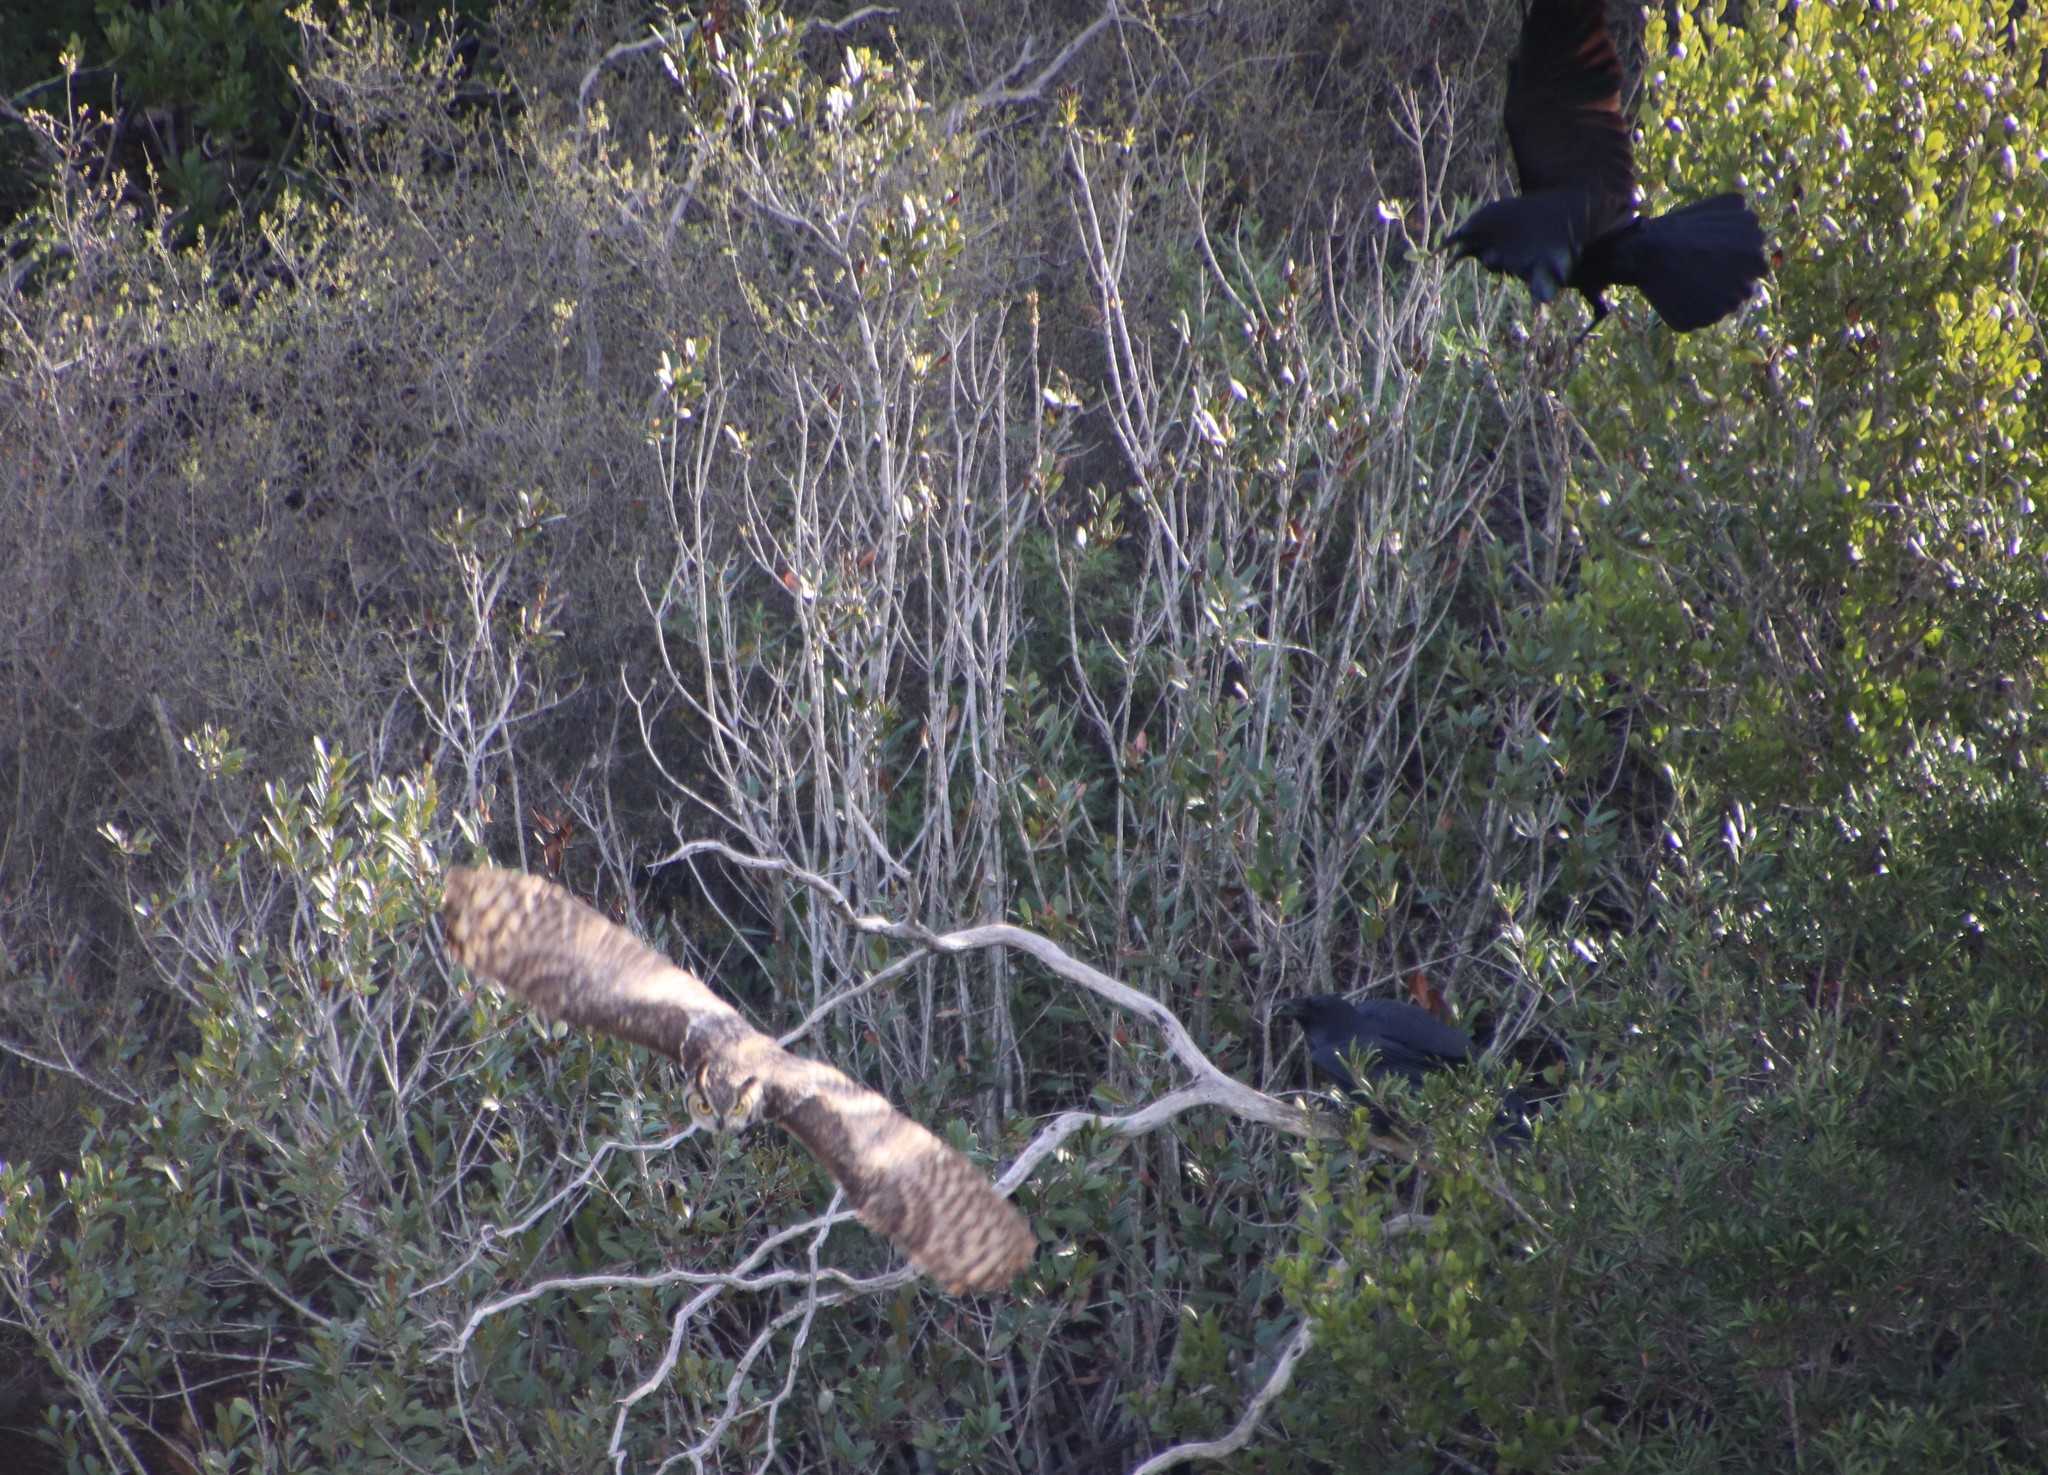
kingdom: Animalia
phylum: Chordata
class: Aves
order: Strigiformes
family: Strigidae
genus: Bubo
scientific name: Bubo virginianus
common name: Great horned owl
